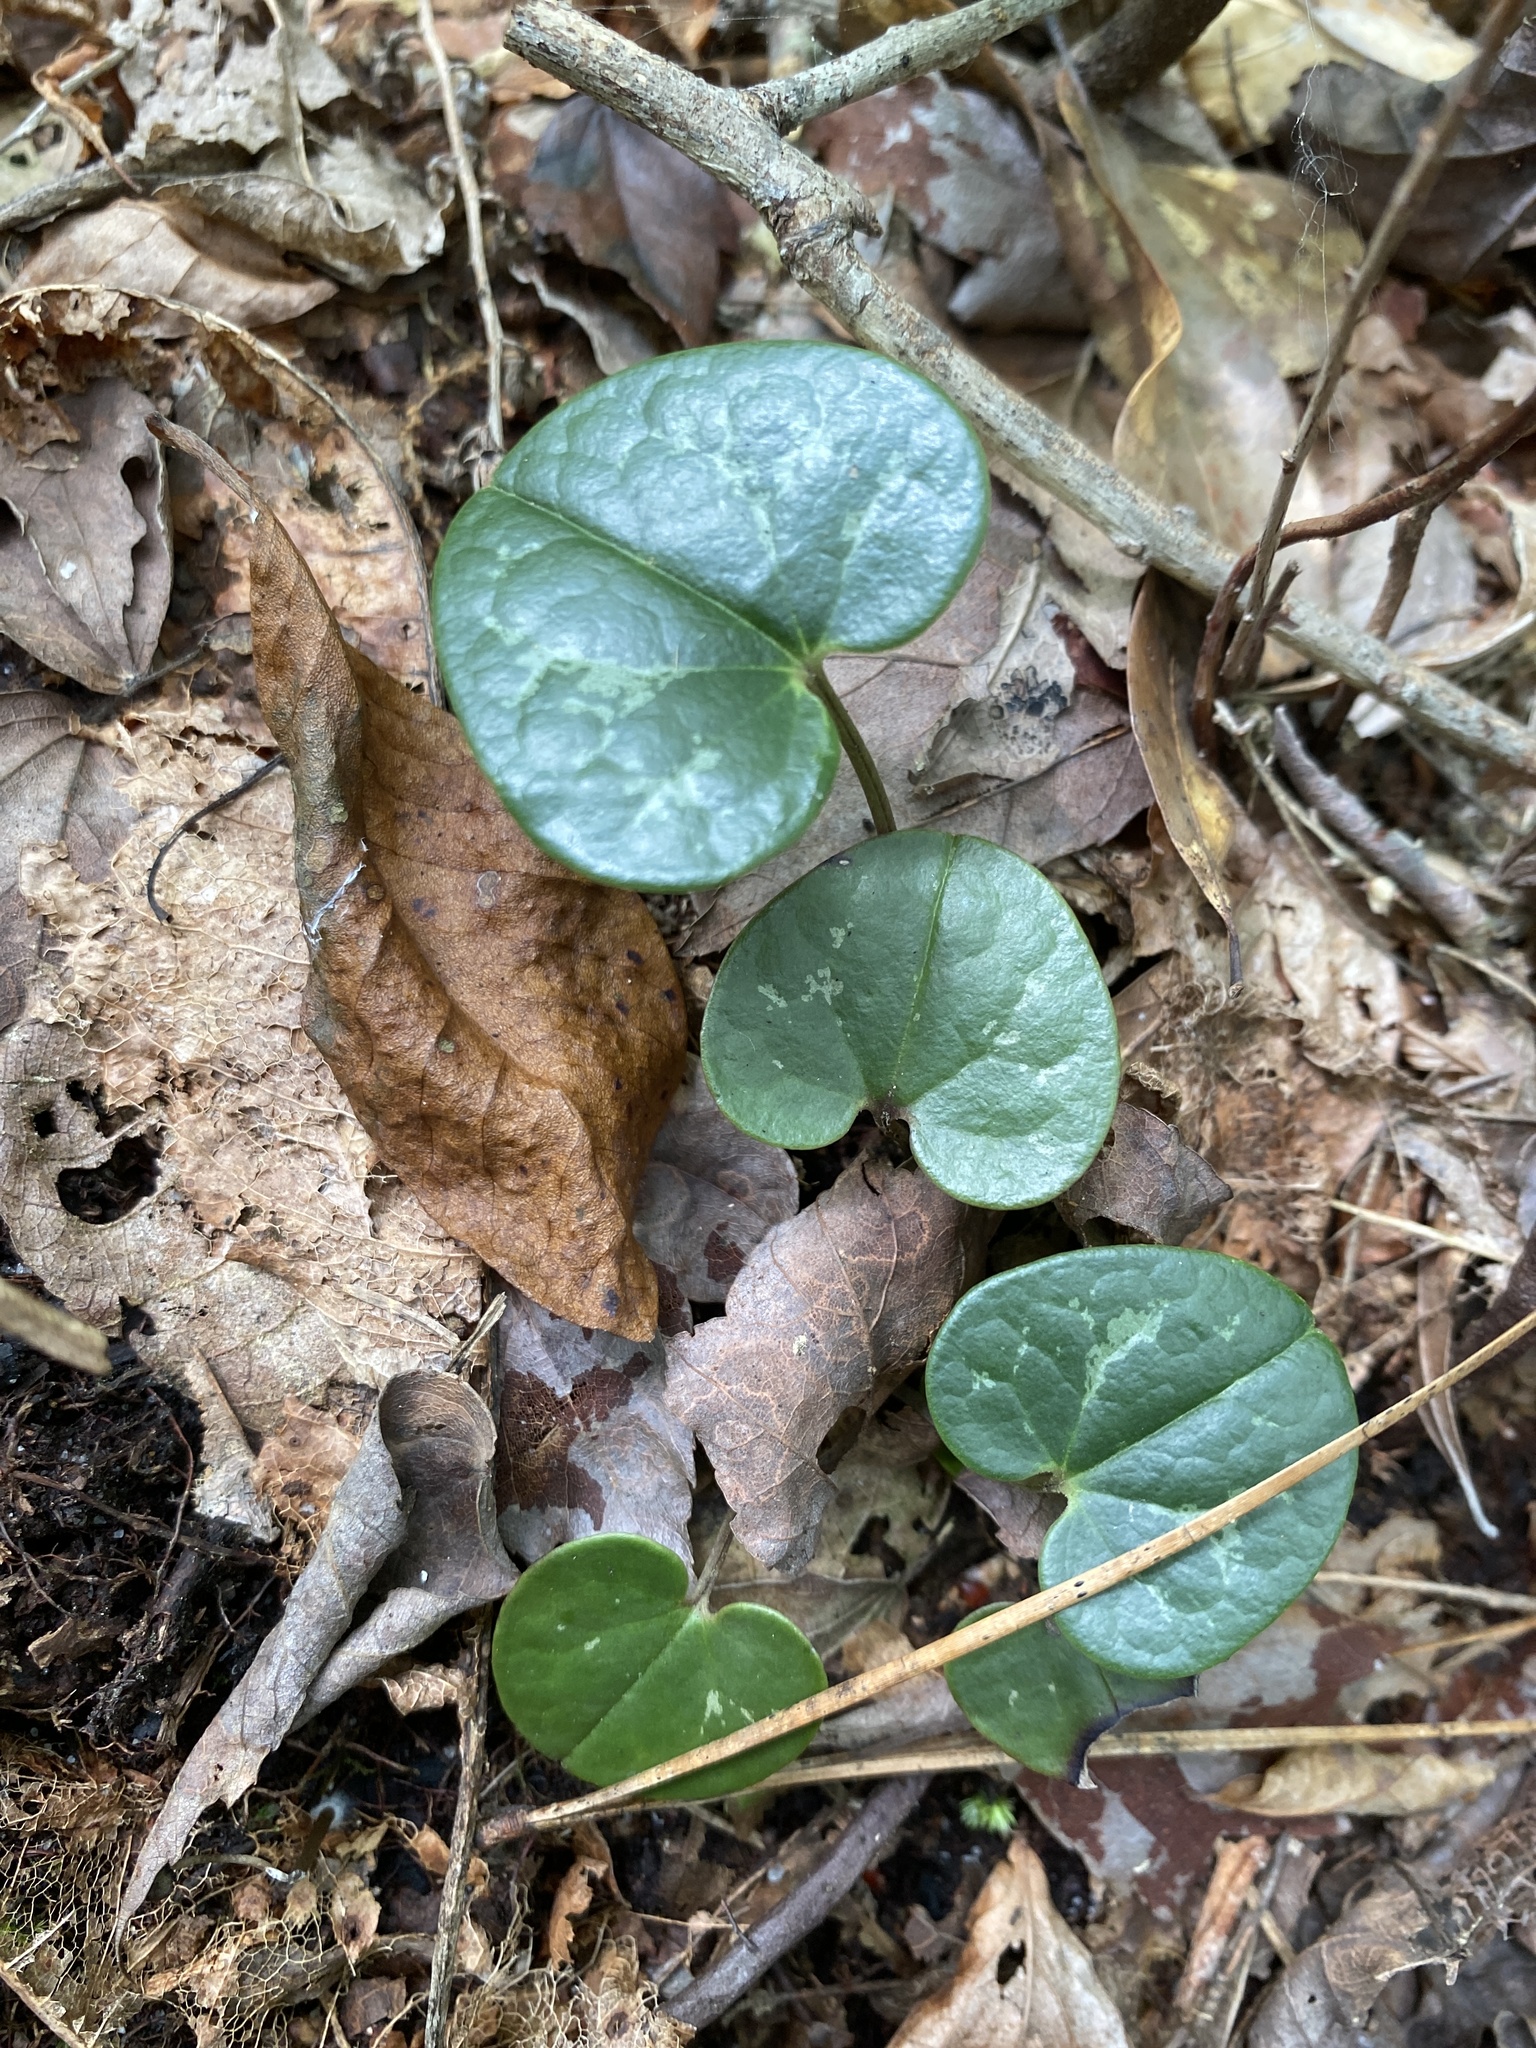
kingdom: Plantae
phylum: Tracheophyta
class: Magnoliopsida
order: Piperales
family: Aristolochiaceae
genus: Hexastylis
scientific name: Hexastylis sorriei
